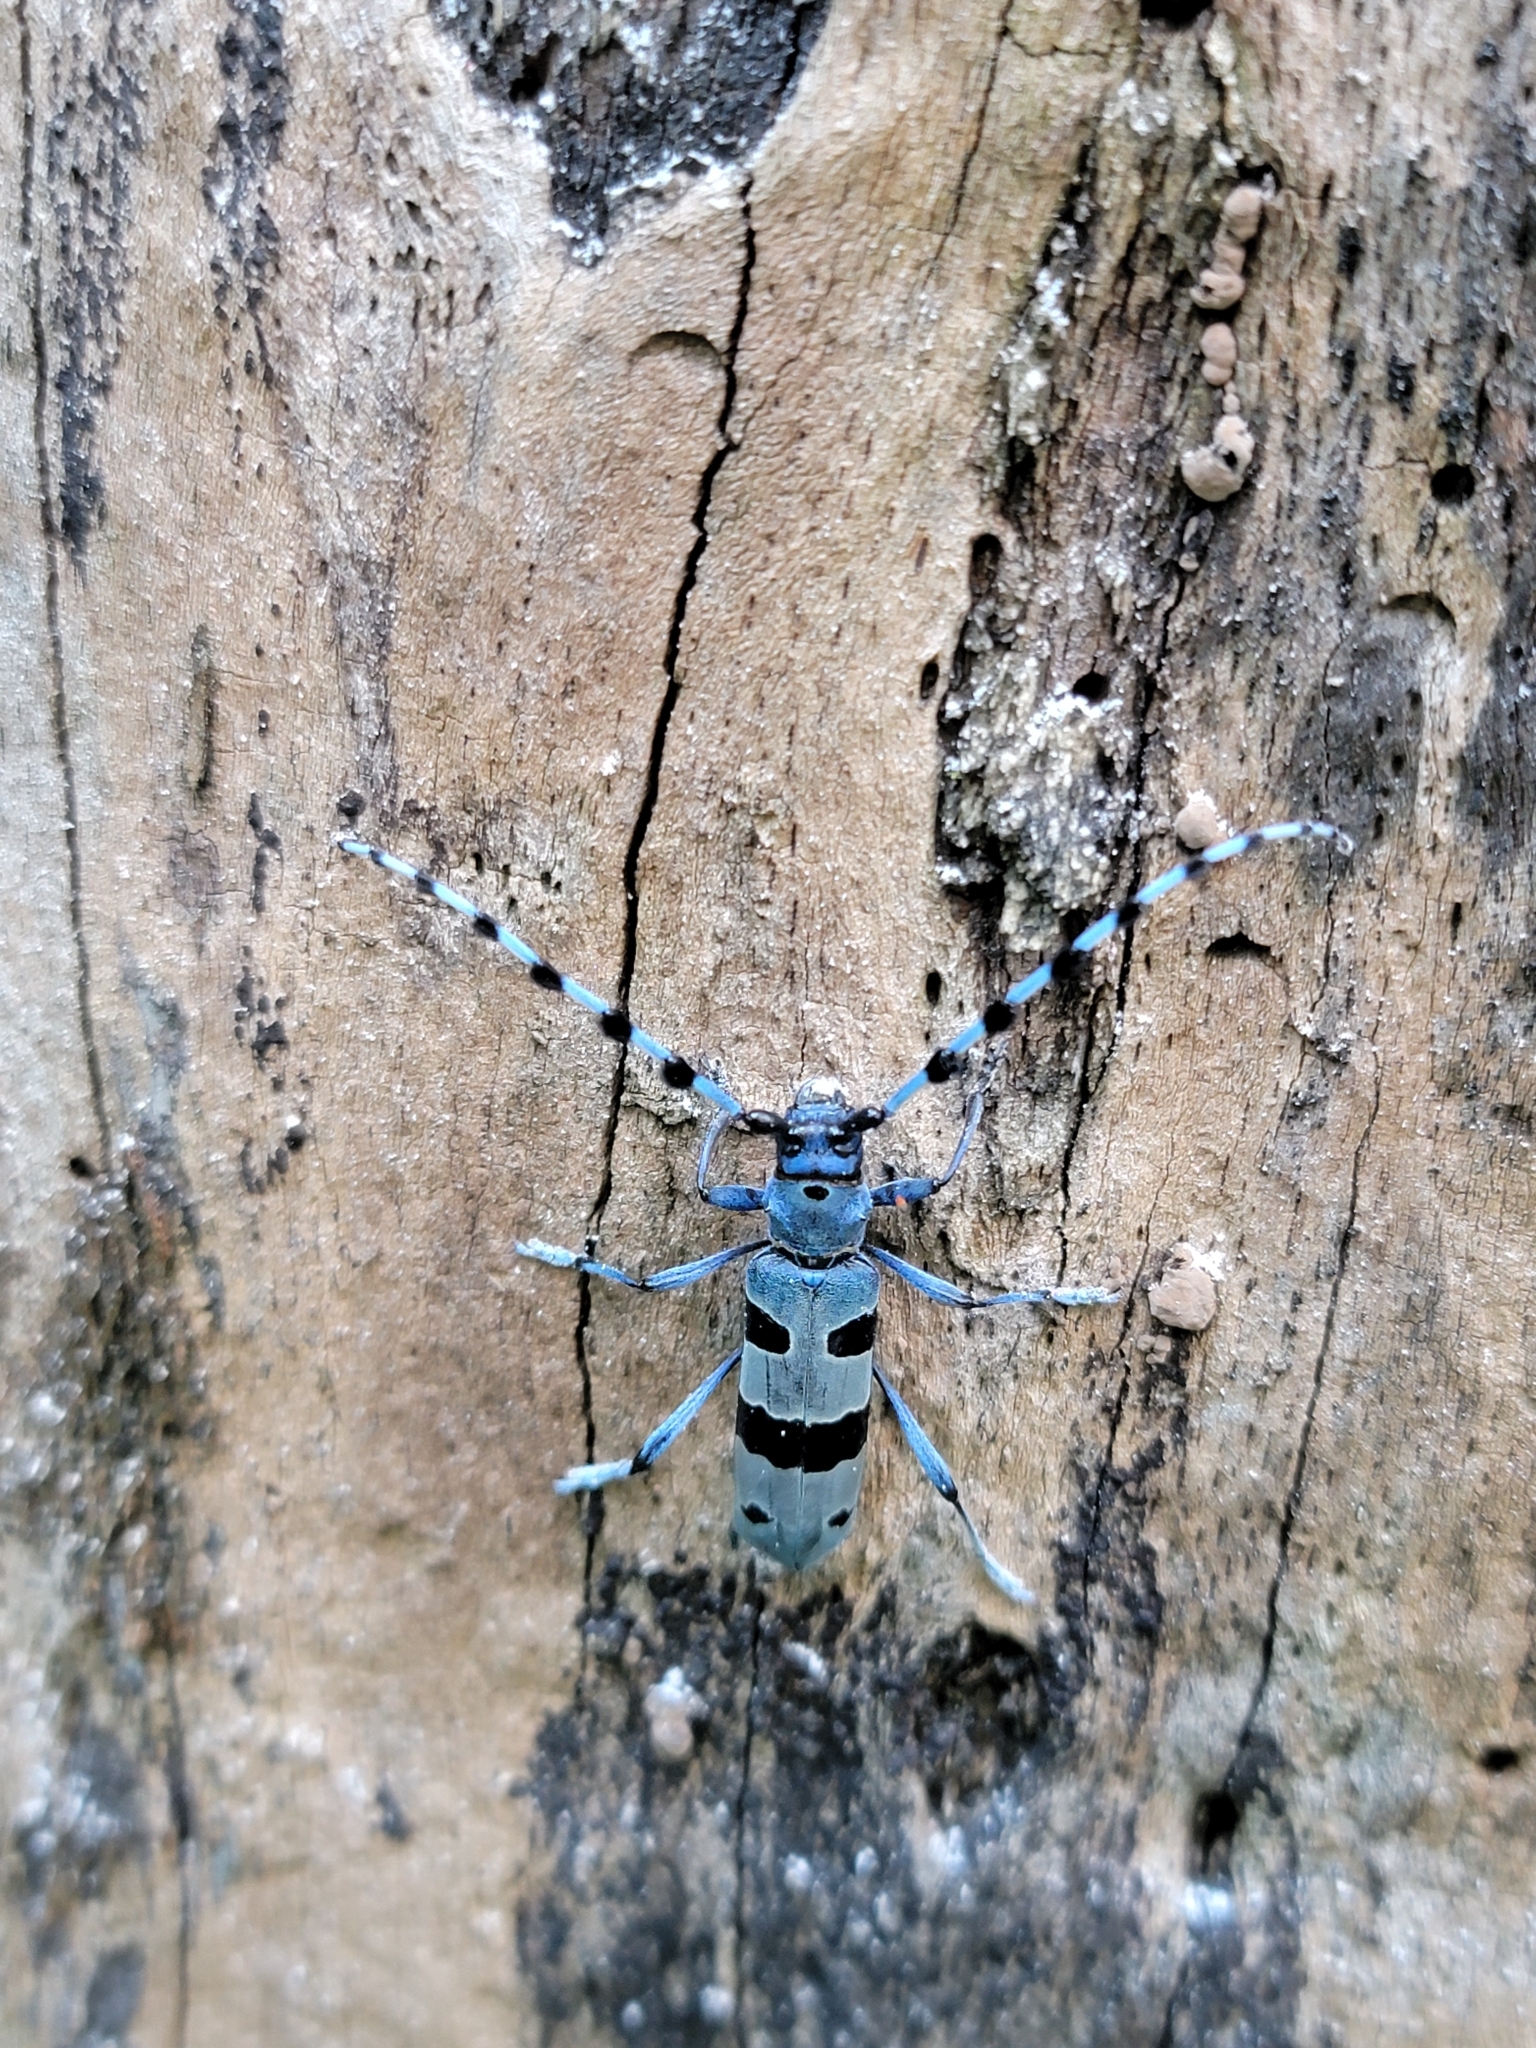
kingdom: Animalia
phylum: Arthropoda
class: Insecta
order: Coleoptera
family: Cerambycidae
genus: Rosalia
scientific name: Rosalia alpina
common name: Rosalia longicorn
